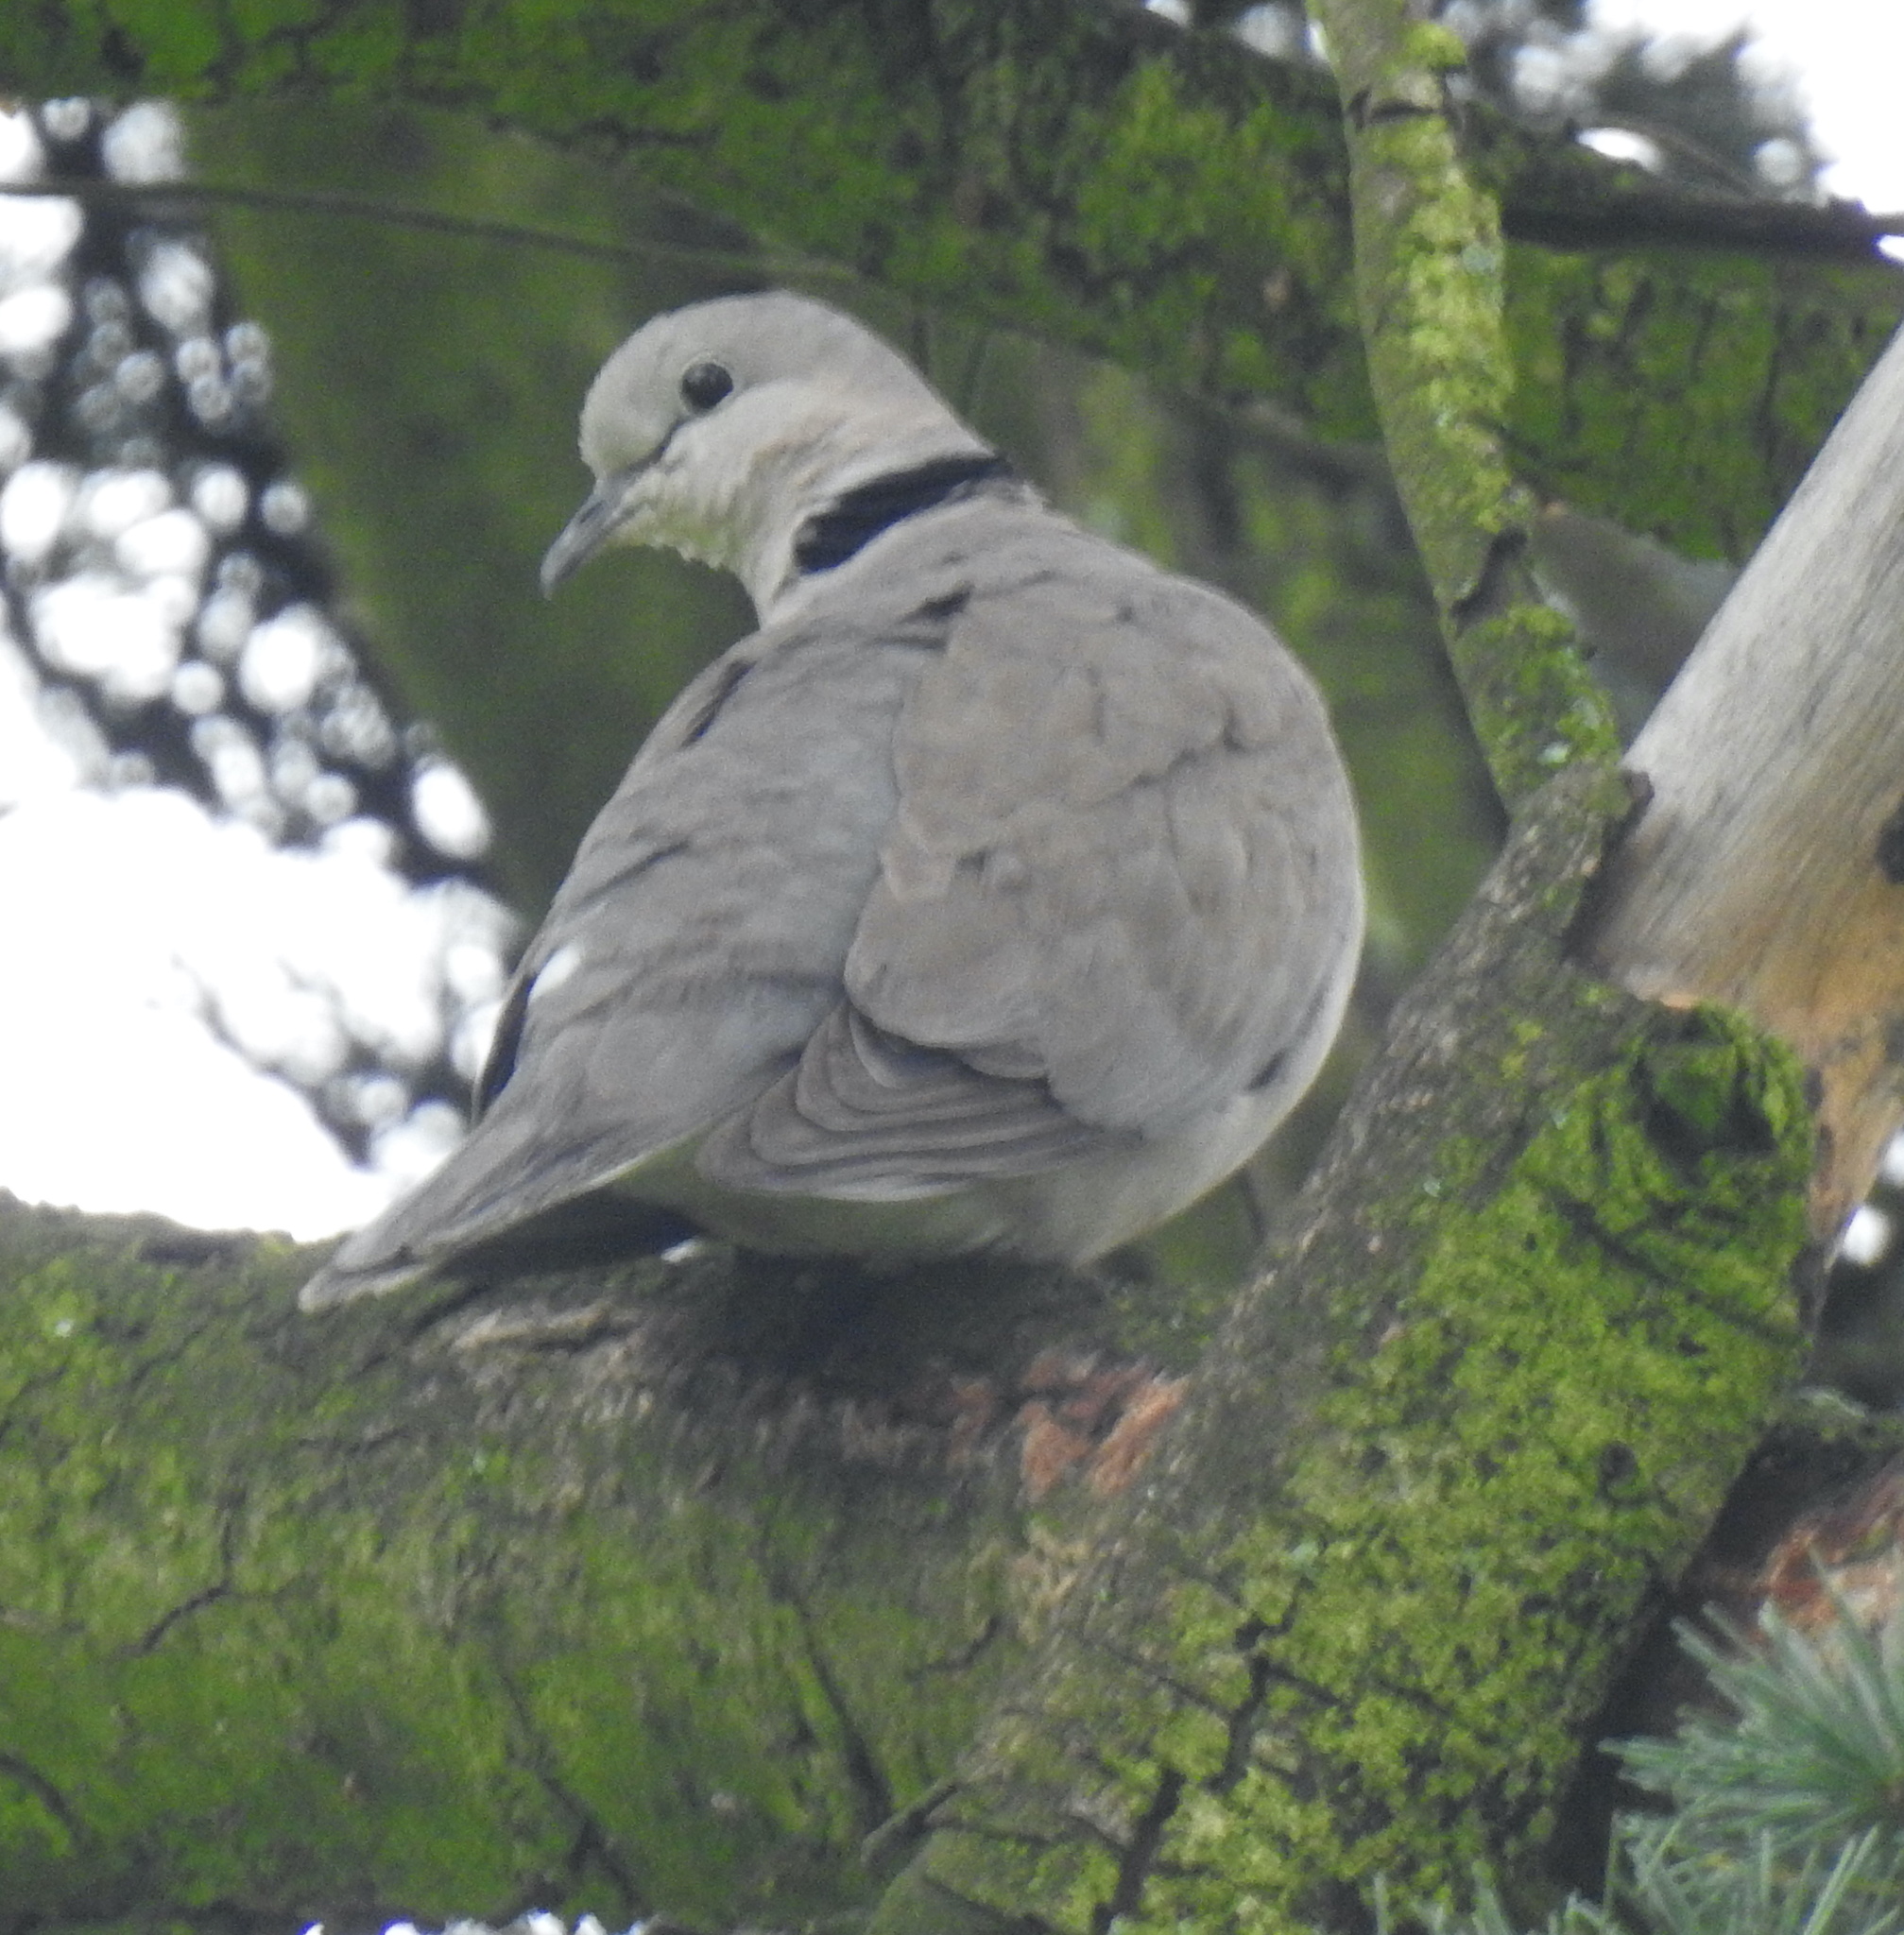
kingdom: Animalia
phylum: Chordata
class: Aves
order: Columbiformes
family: Columbidae
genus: Streptopelia
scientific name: Streptopelia capicola
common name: Ring-necked dove
